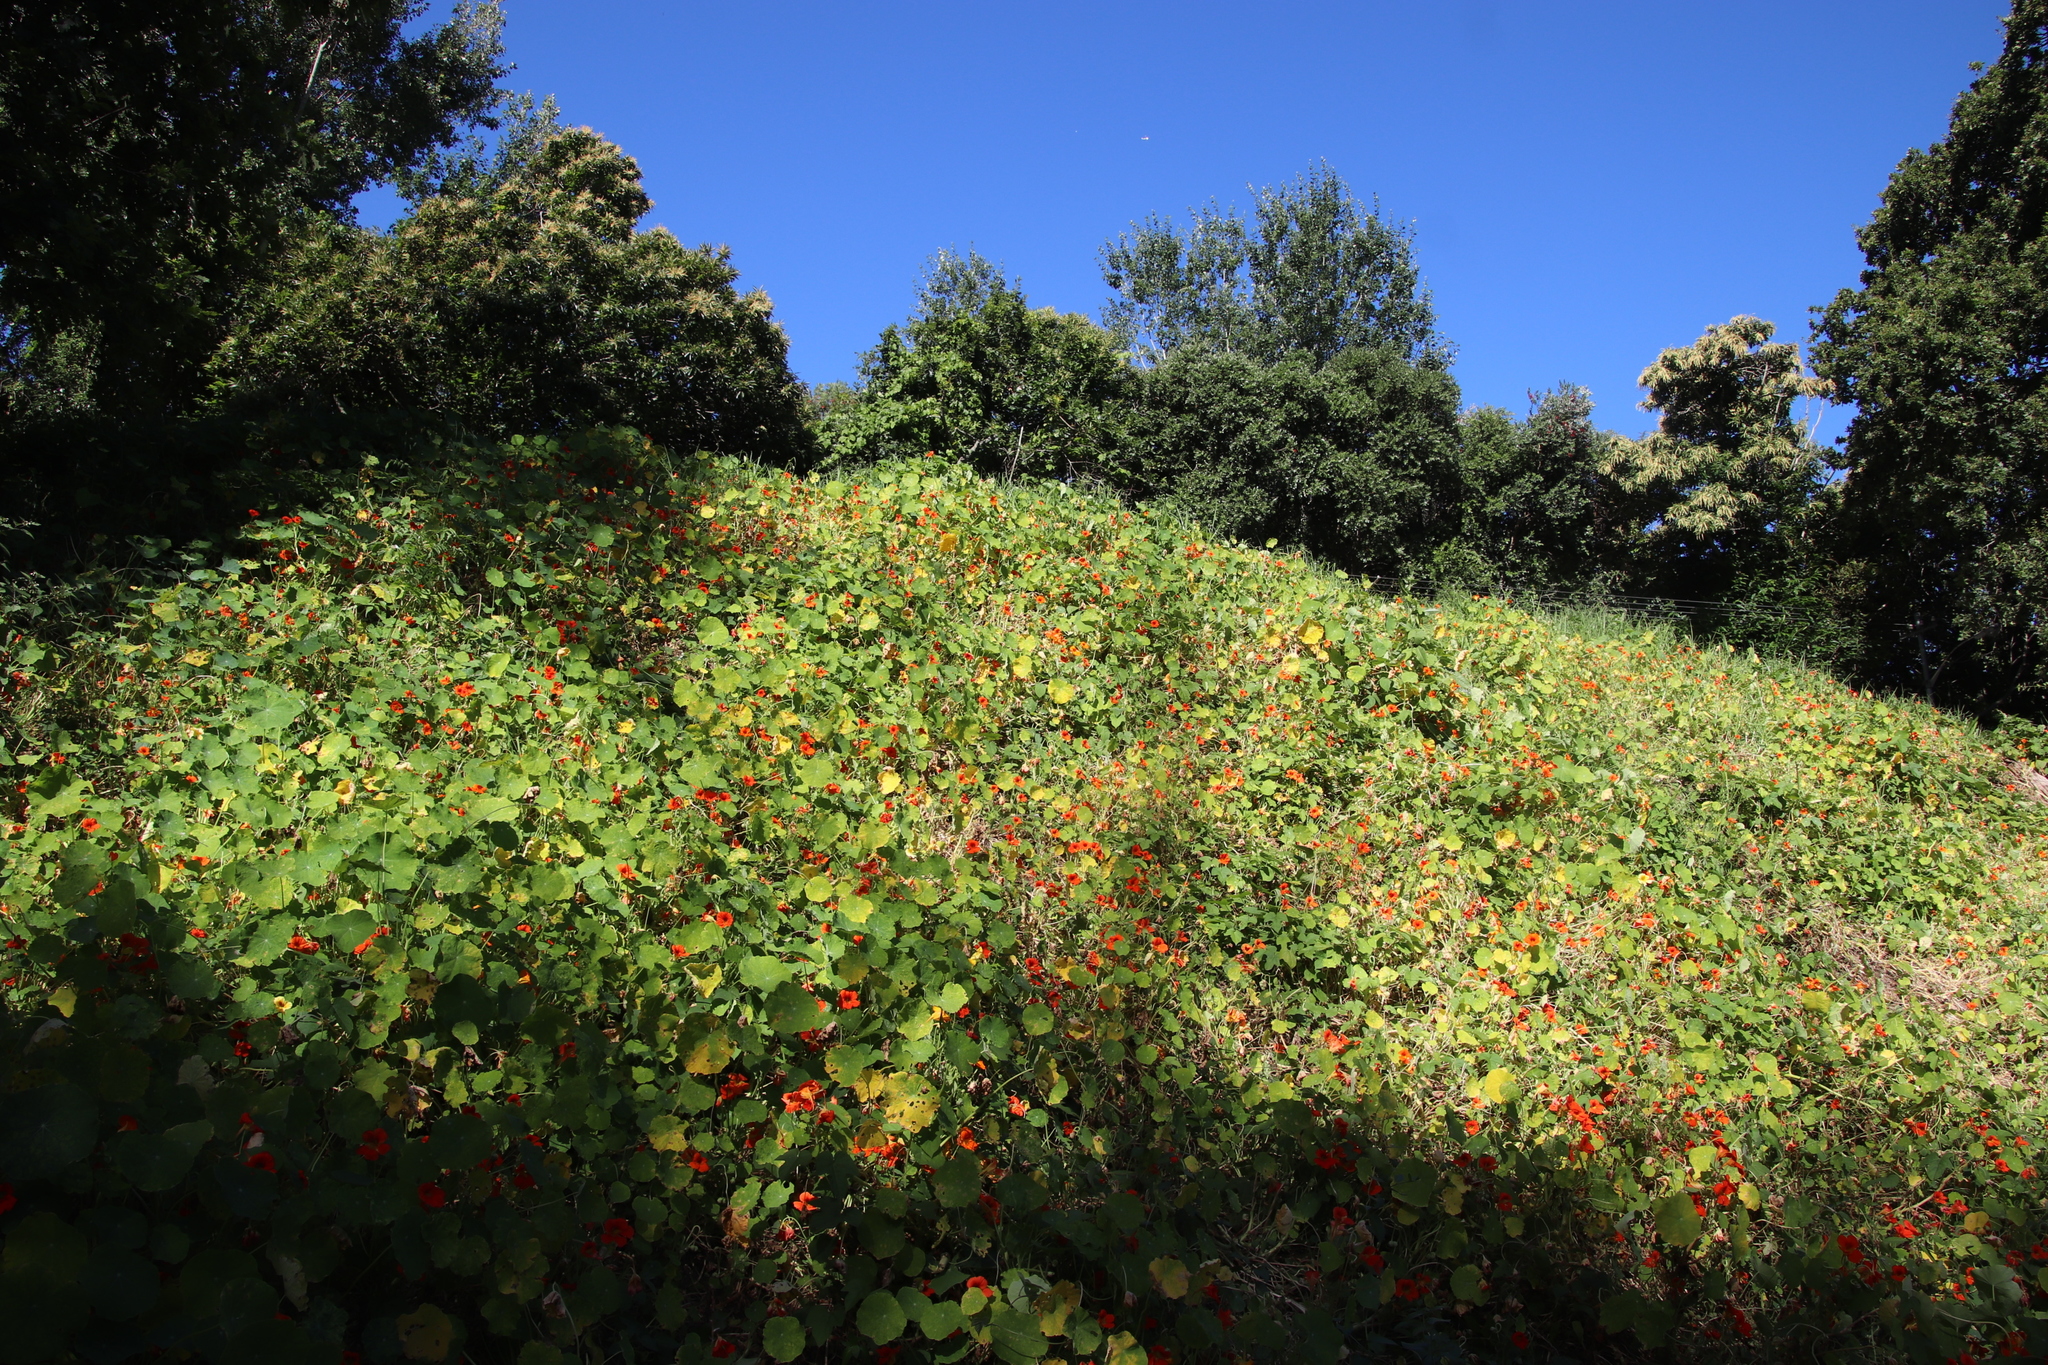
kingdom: Plantae
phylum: Tracheophyta
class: Magnoliopsida
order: Brassicales
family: Tropaeolaceae
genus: Tropaeolum
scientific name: Tropaeolum majus
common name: Nasturtium
